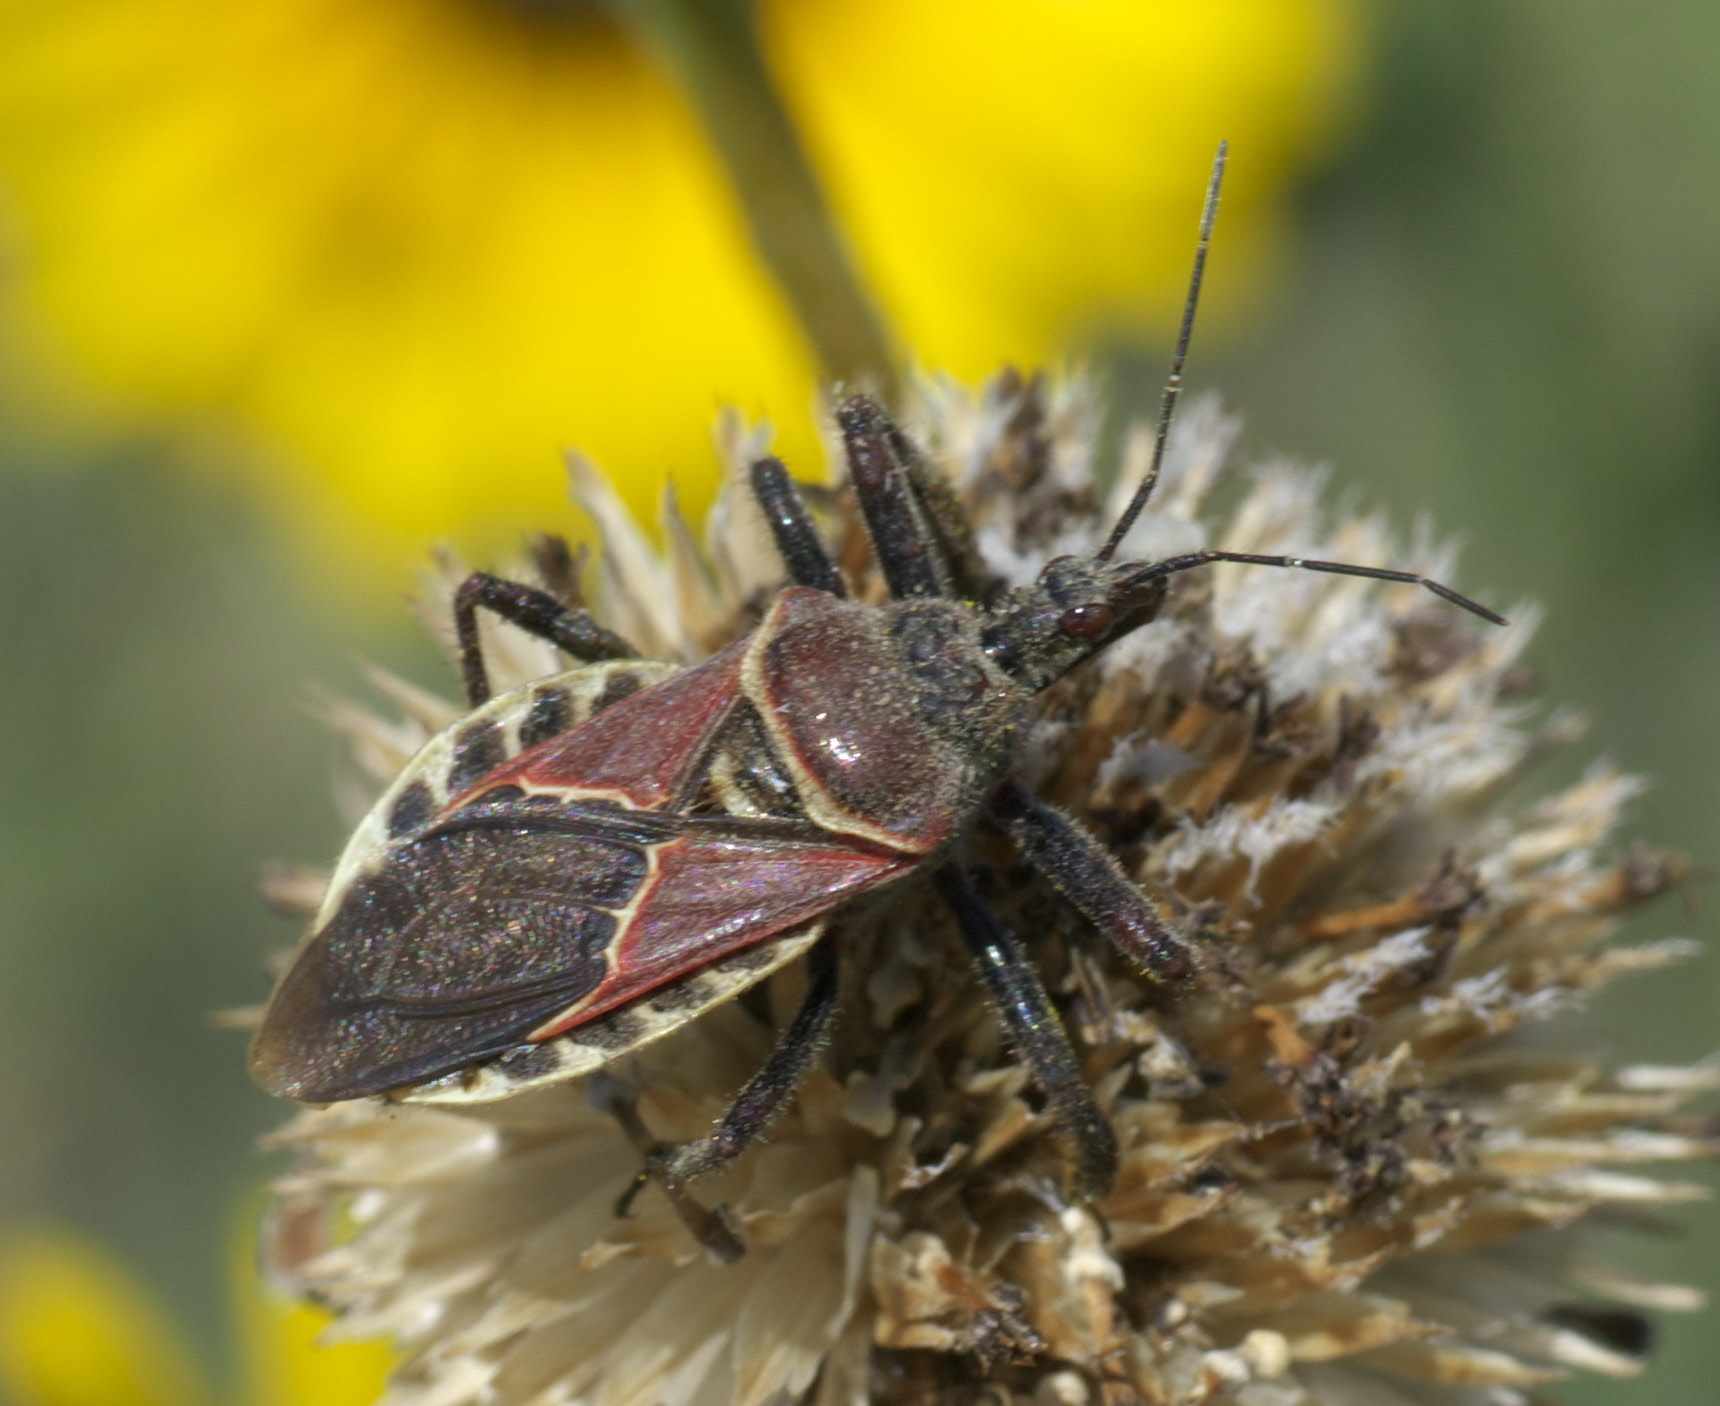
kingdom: Animalia
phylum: Arthropoda
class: Insecta
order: Hemiptera
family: Reduviidae
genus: Apiomerus
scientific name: Apiomerus spissipes
